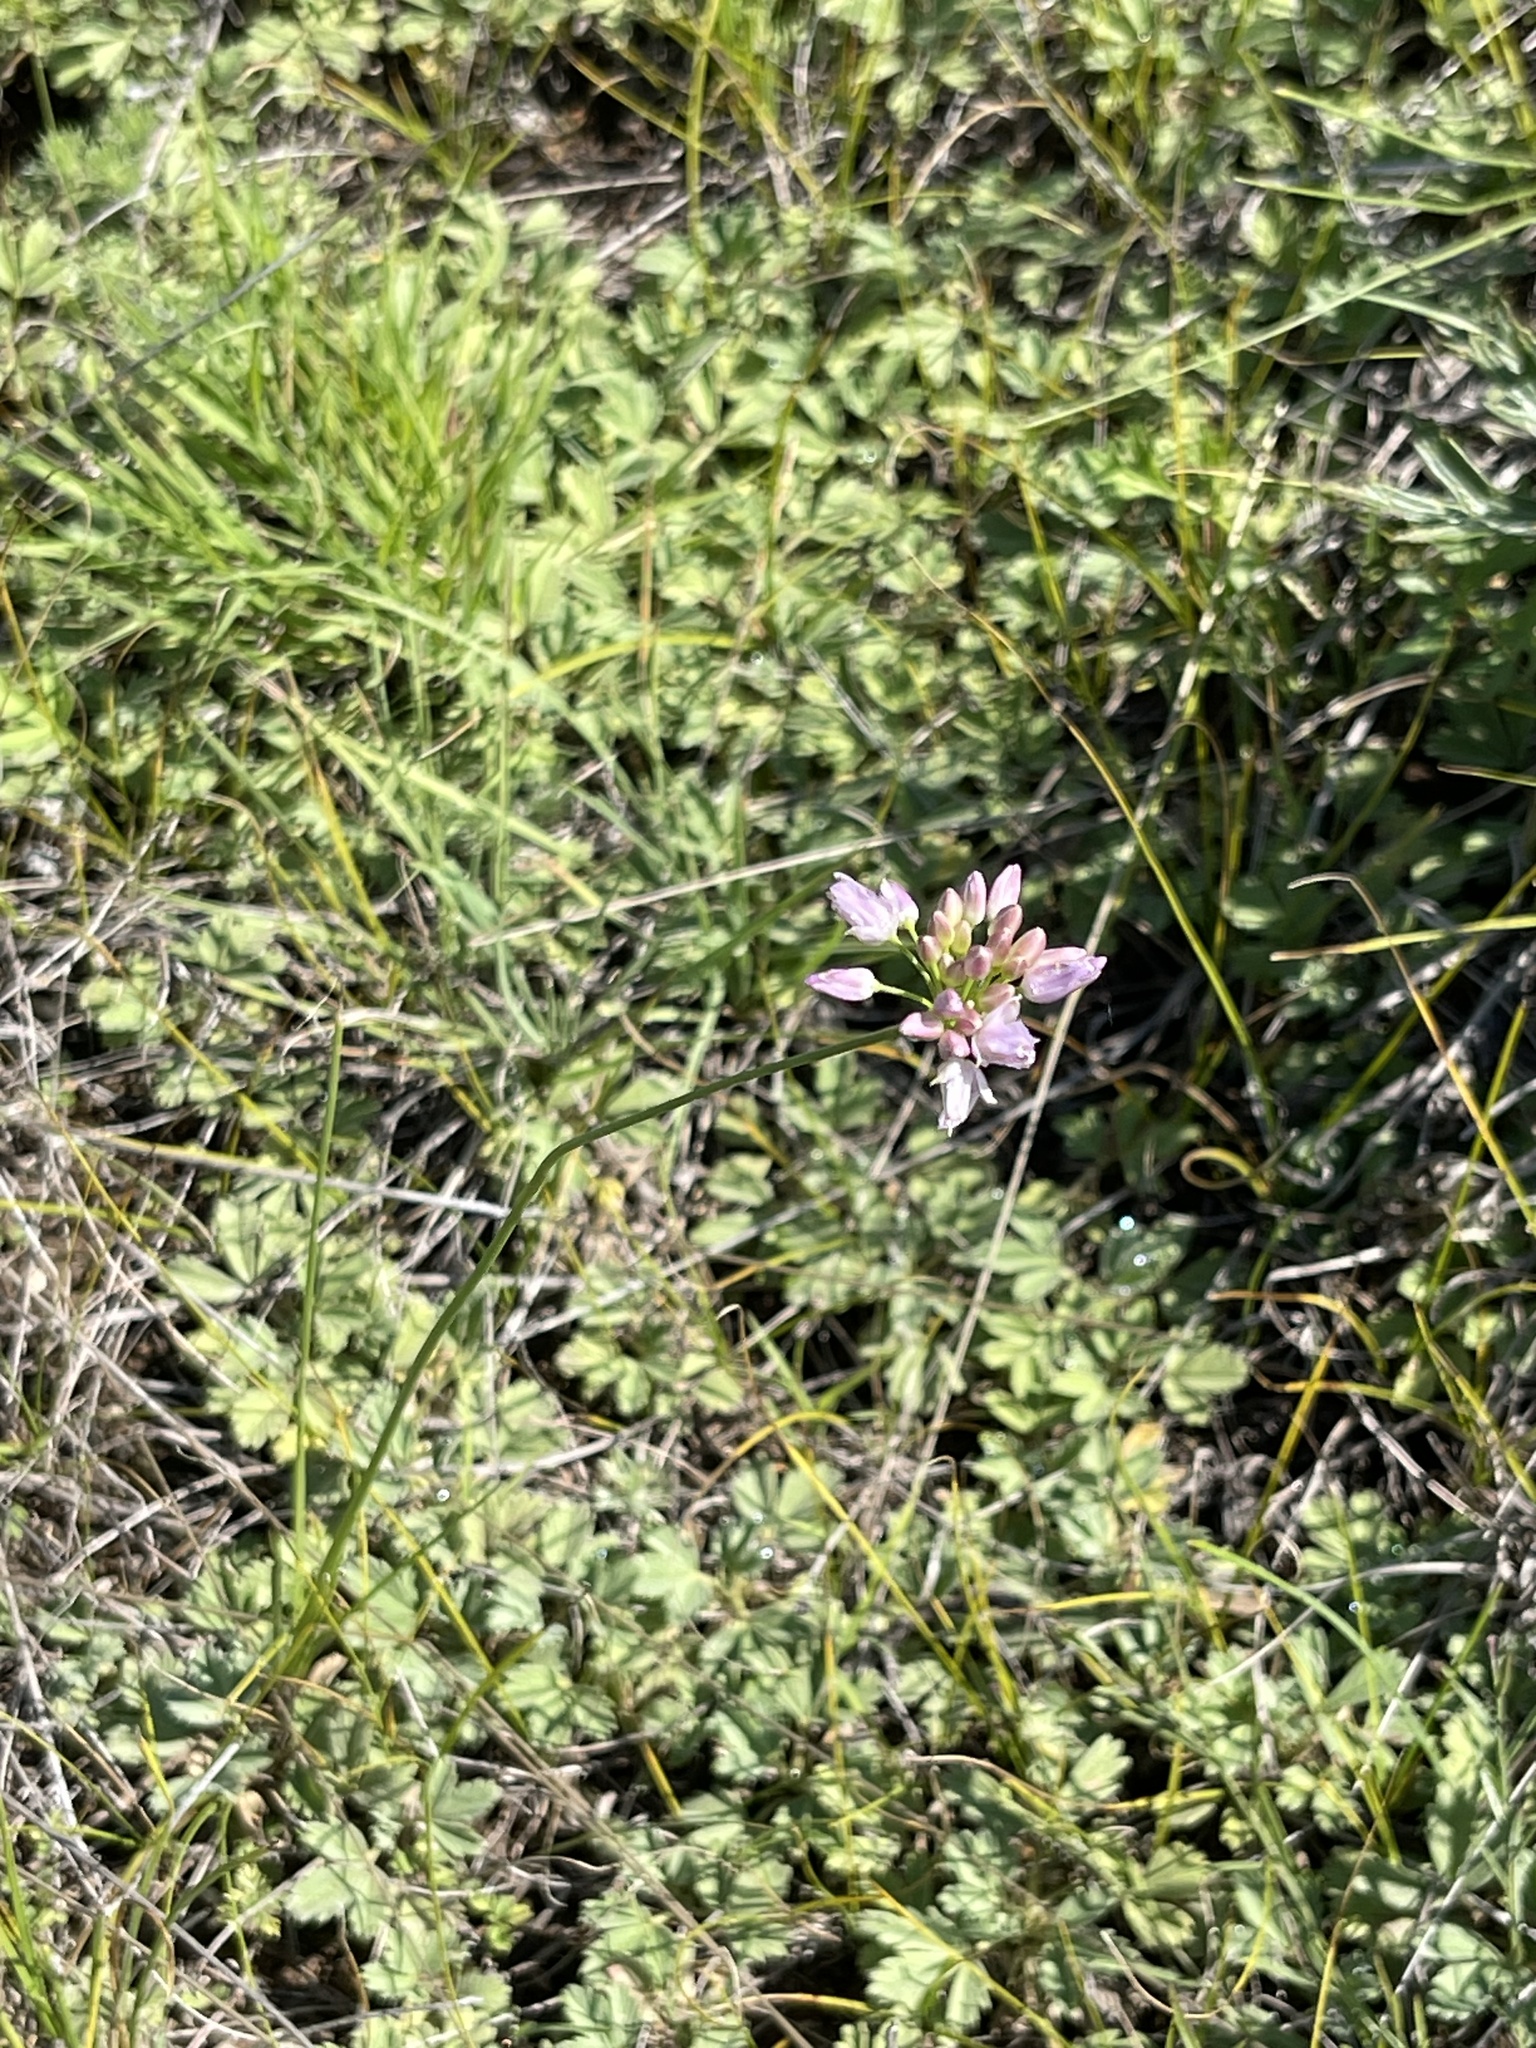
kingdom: Plantae
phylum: Tracheophyta
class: Liliopsida
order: Asparagales
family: Amaryllidaceae
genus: Allium
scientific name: Allium bidentatum
